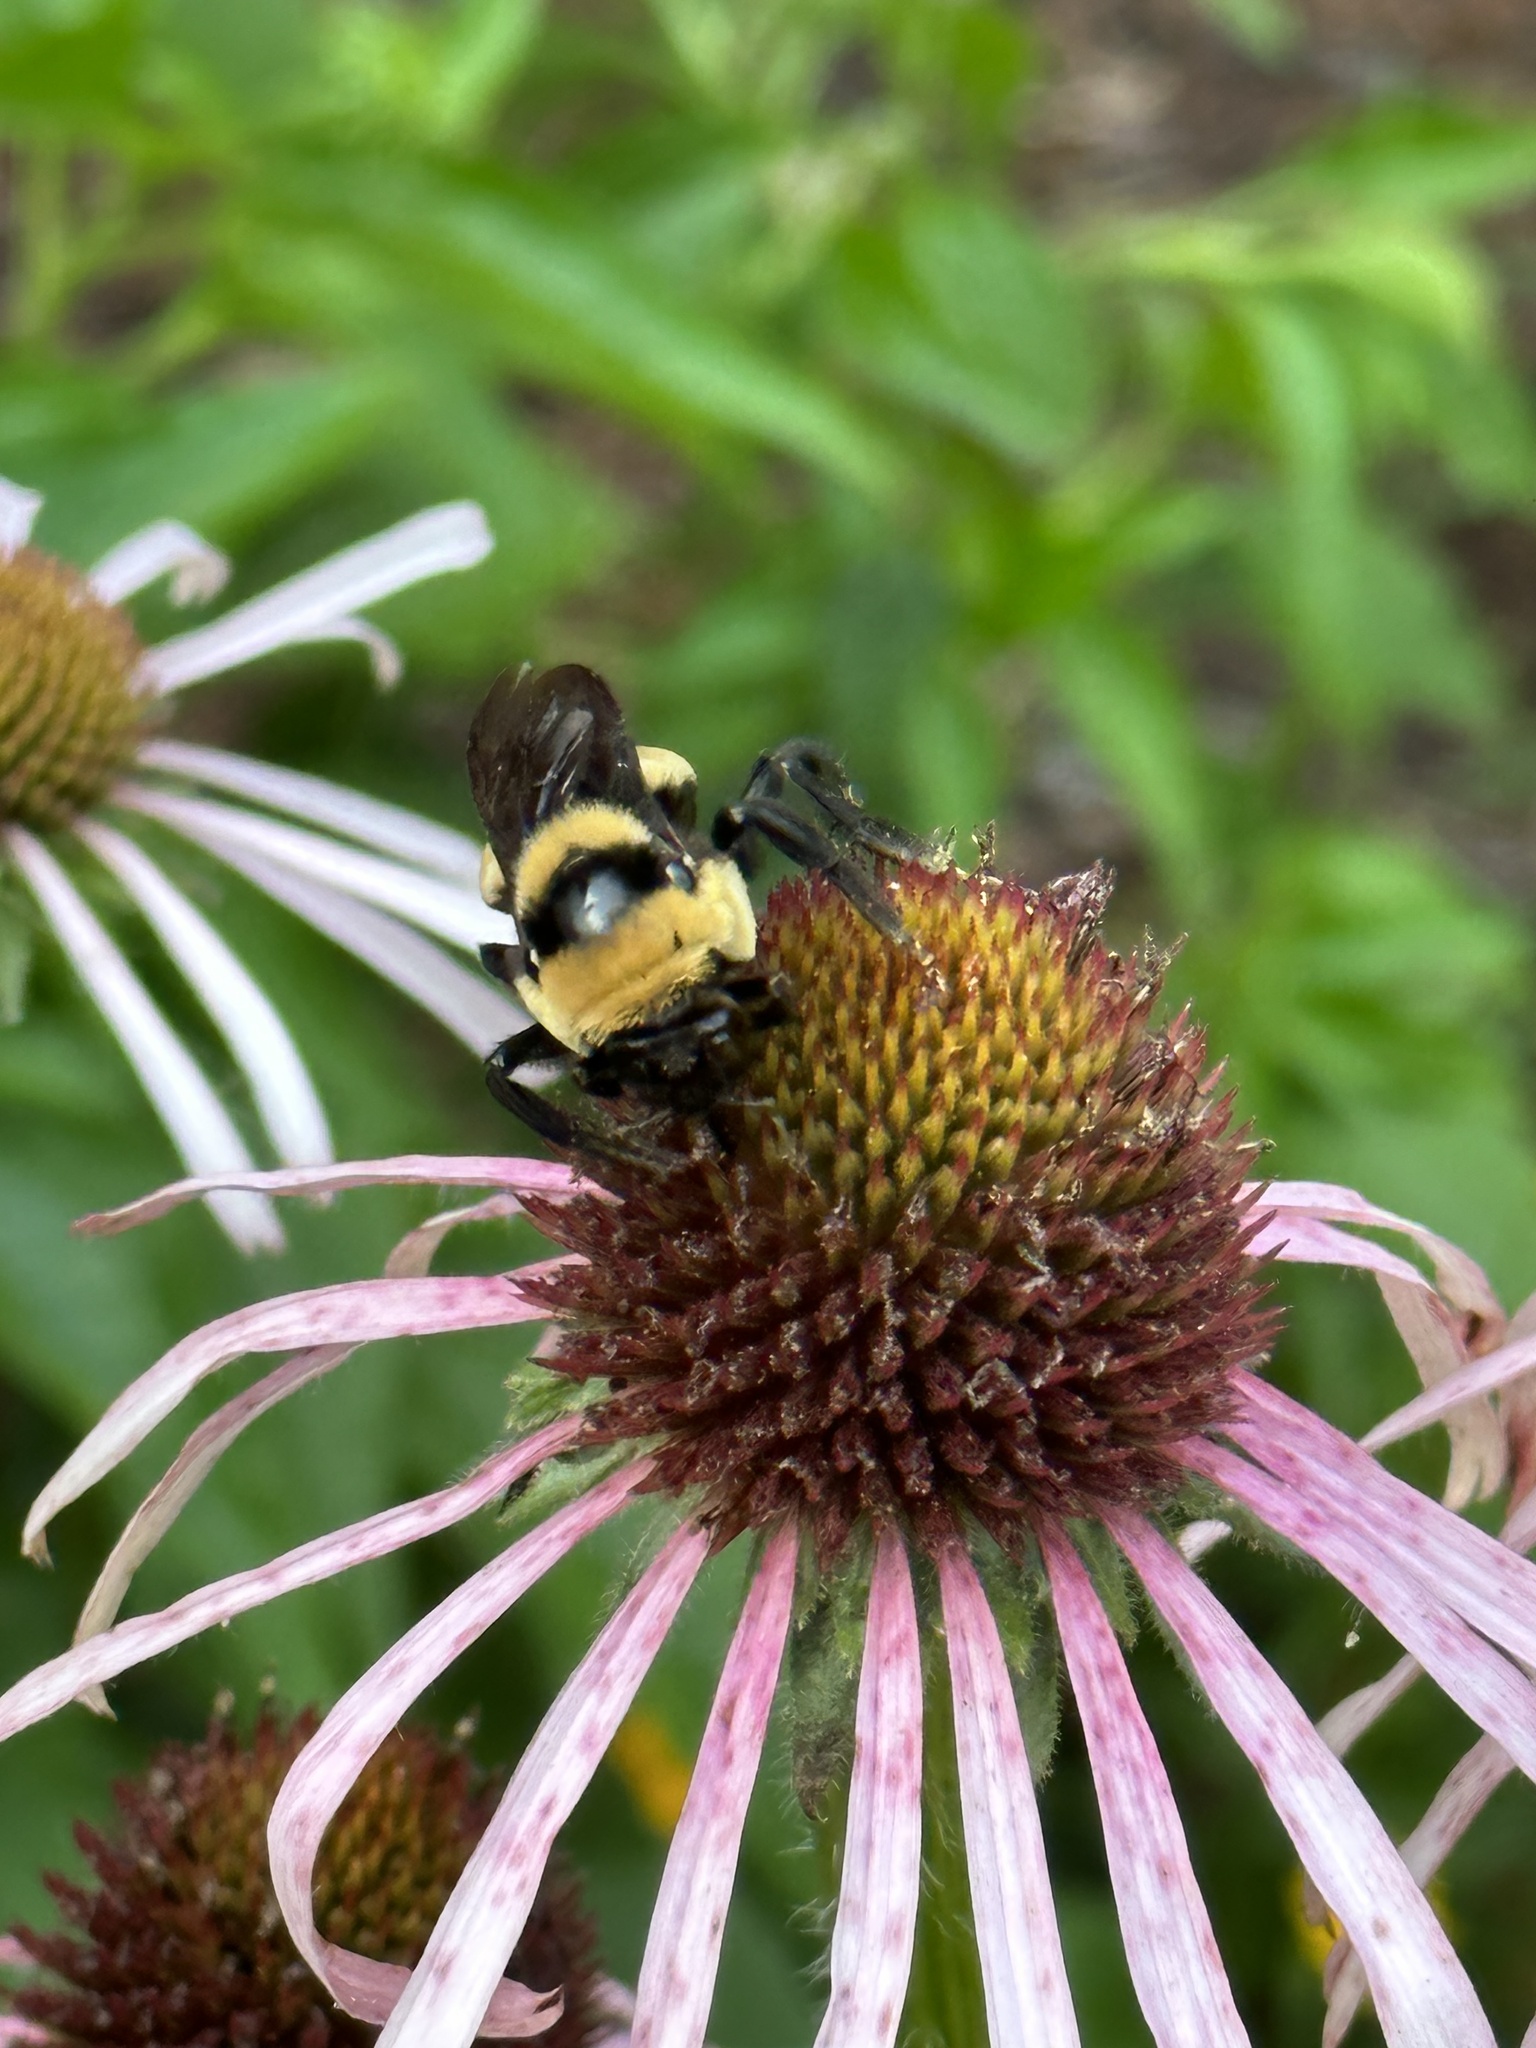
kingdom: Animalia
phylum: Arthropoda
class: Insecta
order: Hymenoptera
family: Apidae
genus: Bombus
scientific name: Bombus fraternus
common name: Southern plains bumble bee
